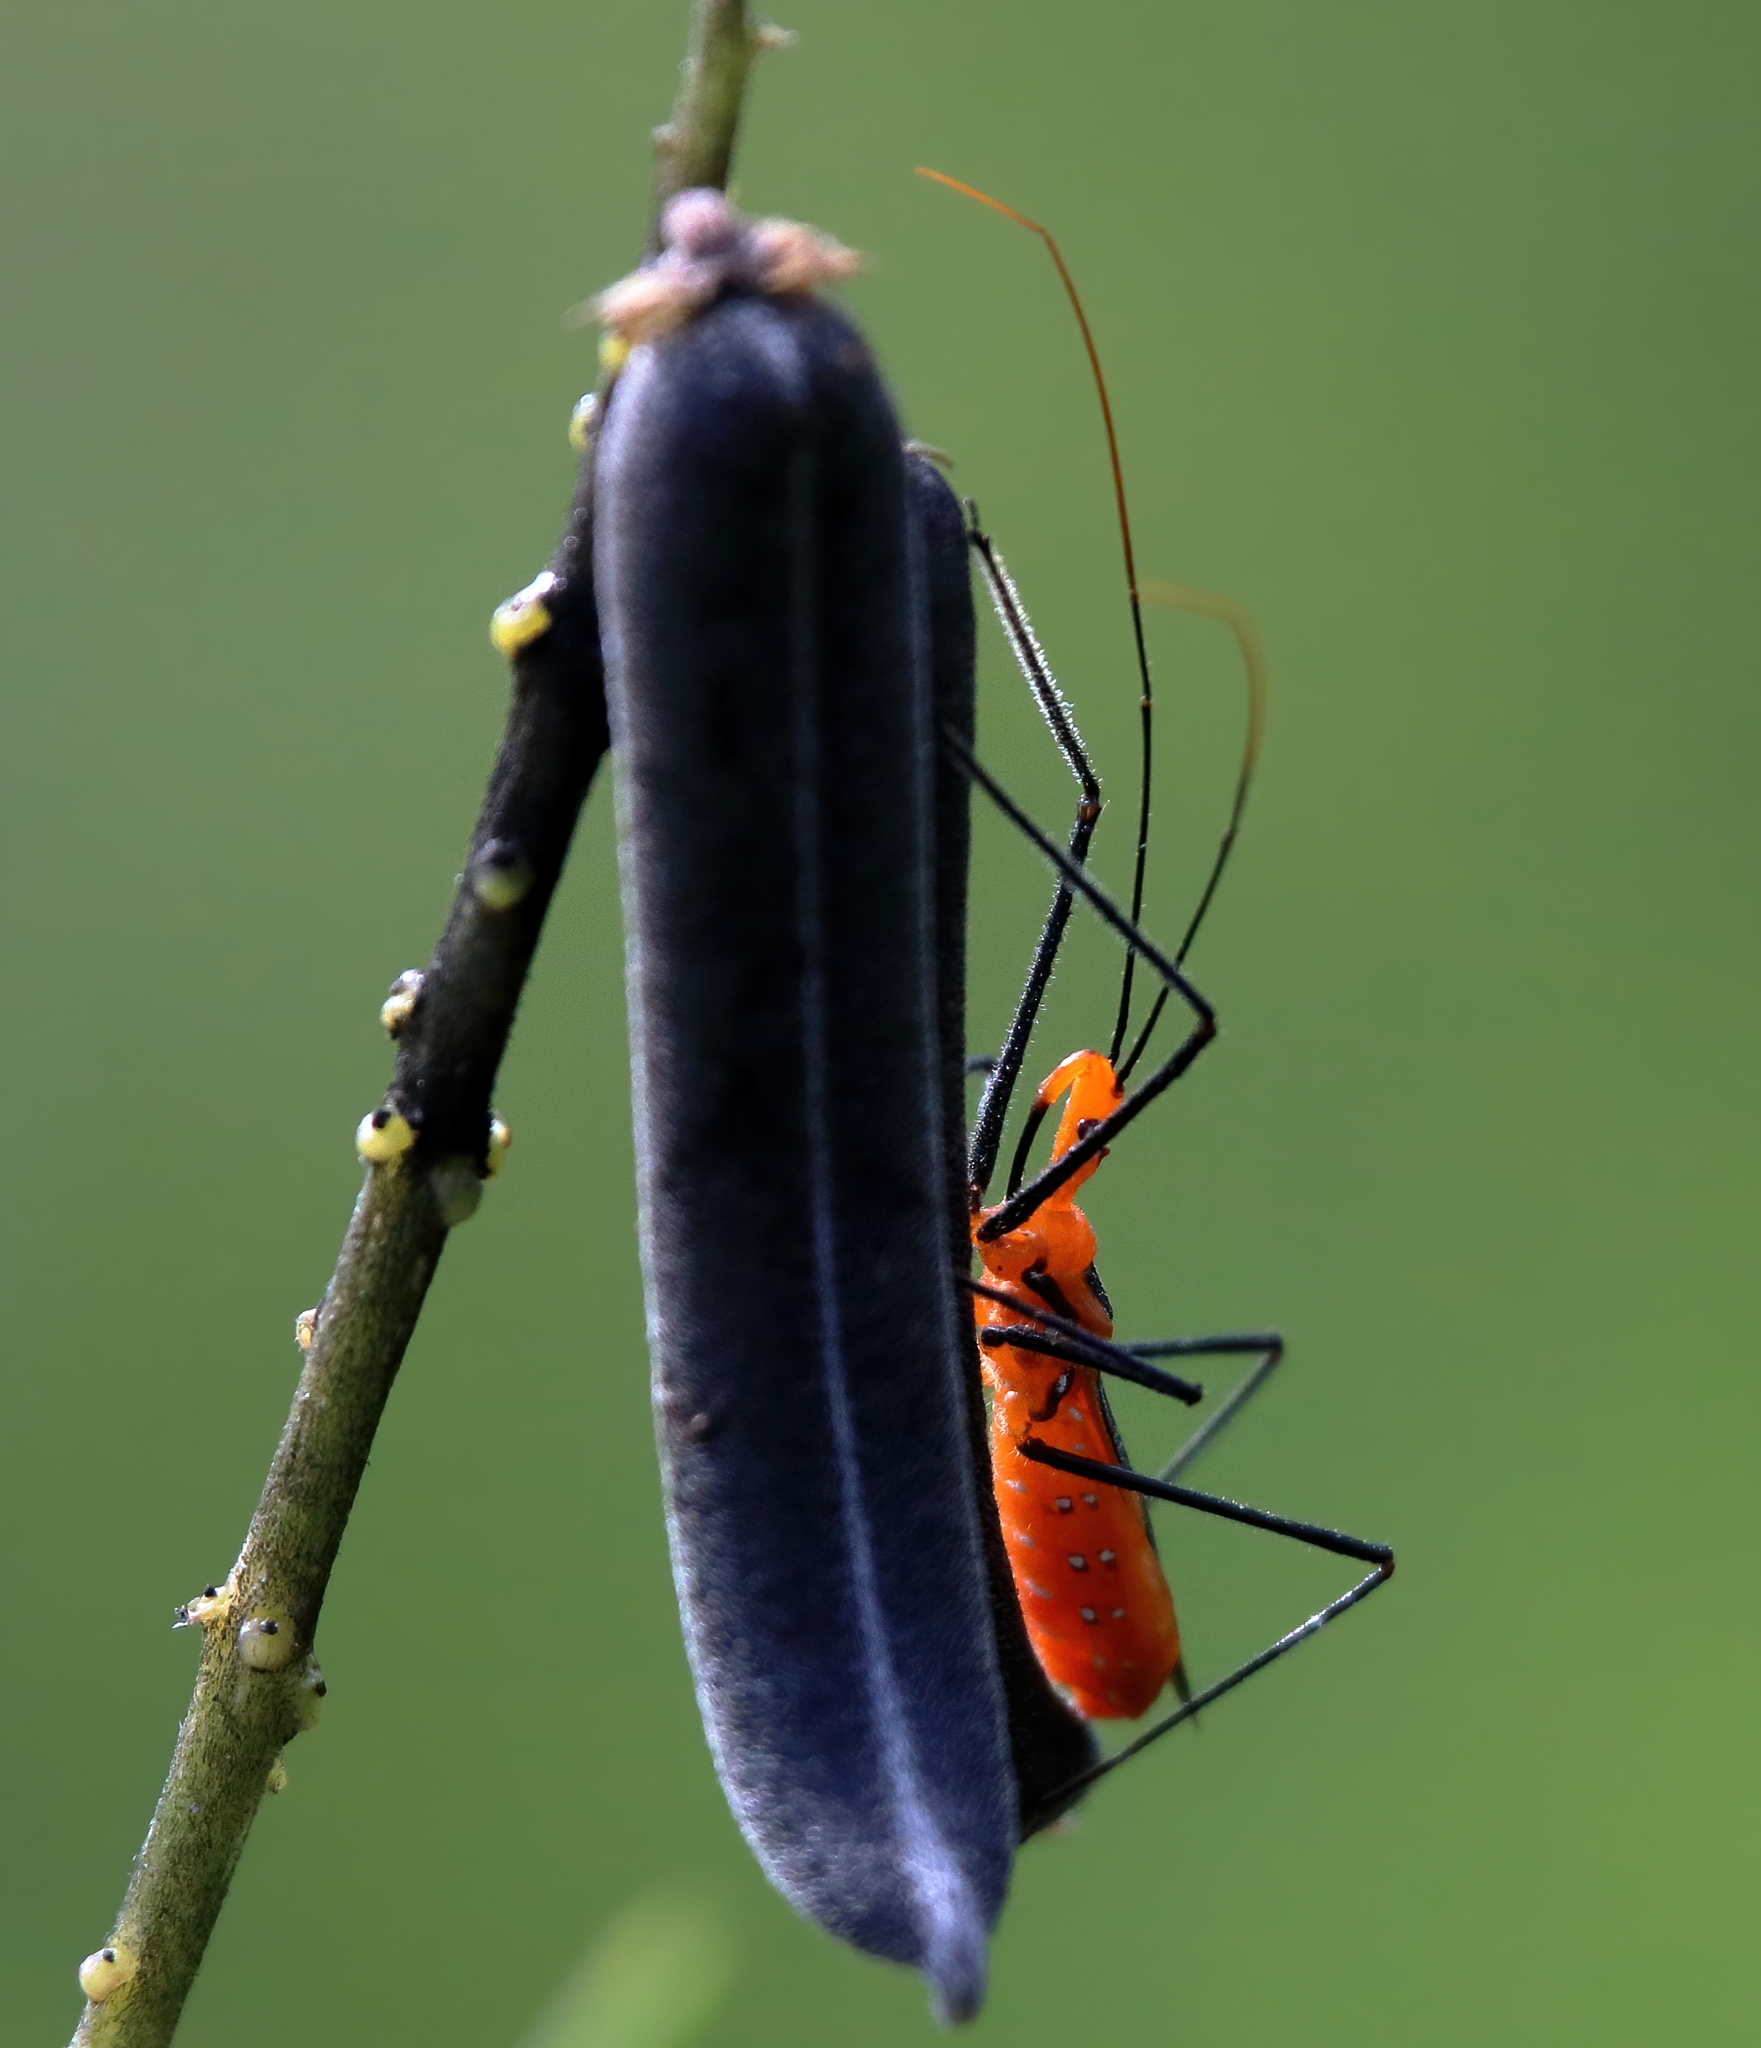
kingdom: Animalia
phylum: Arthropoda
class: Insecta
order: Hemiptera
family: Reduviidae
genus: Zelus
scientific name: Zelus longipes
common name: Milkweed assassin bug
